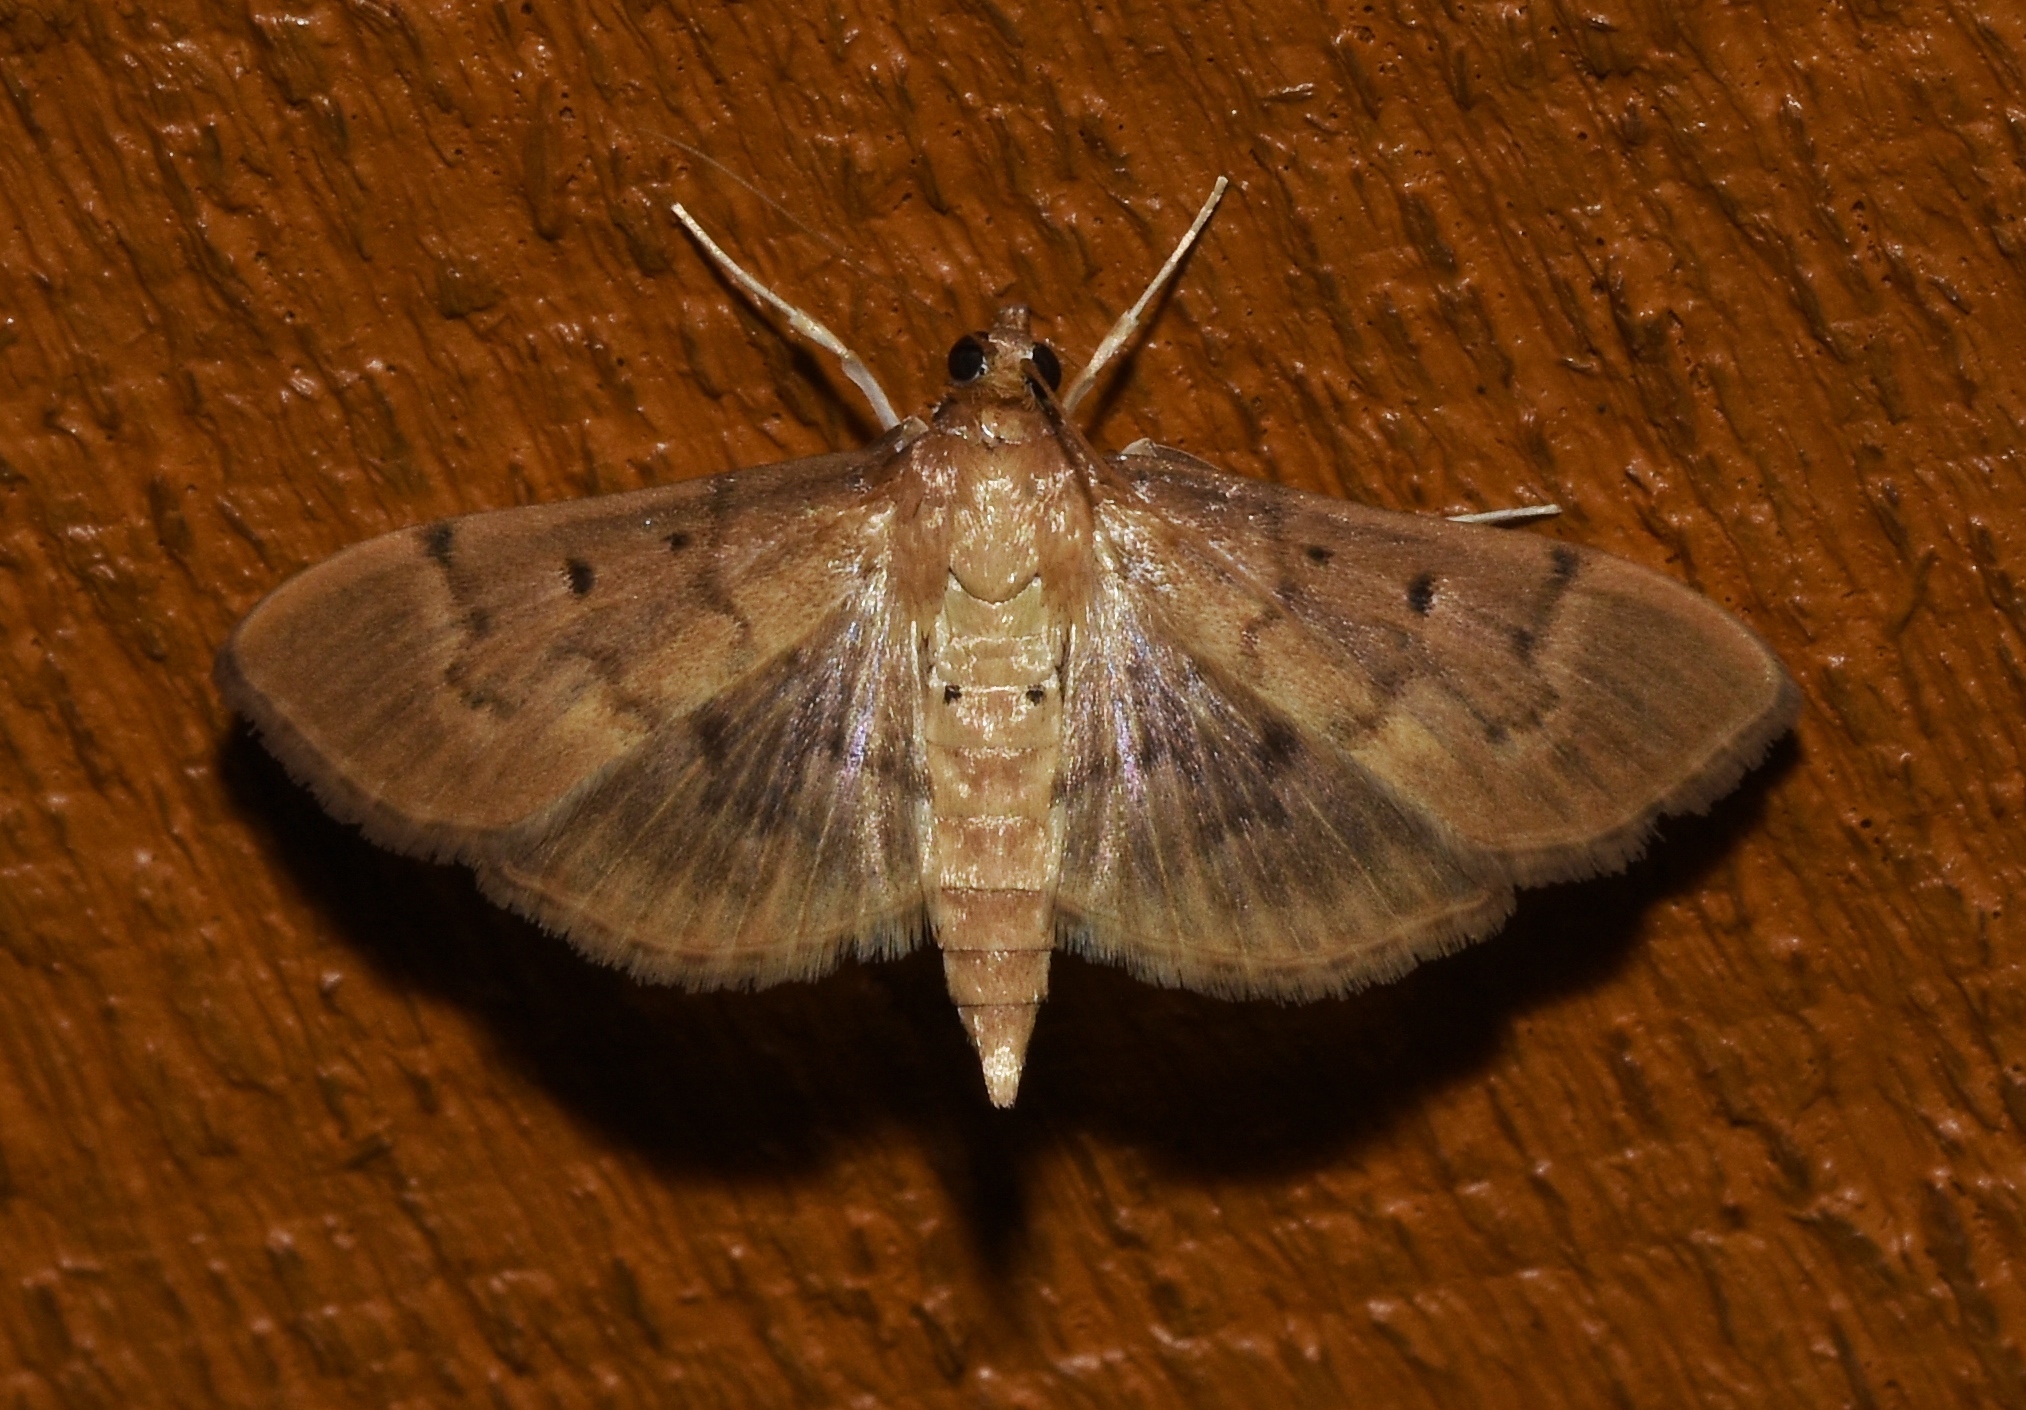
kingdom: Animalia
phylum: Arthropoda
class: Insecta
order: Lepidoptera
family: Crambidae
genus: Herpetogramma
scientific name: Herpetogramma bipunctalis
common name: Southern beet webworm
